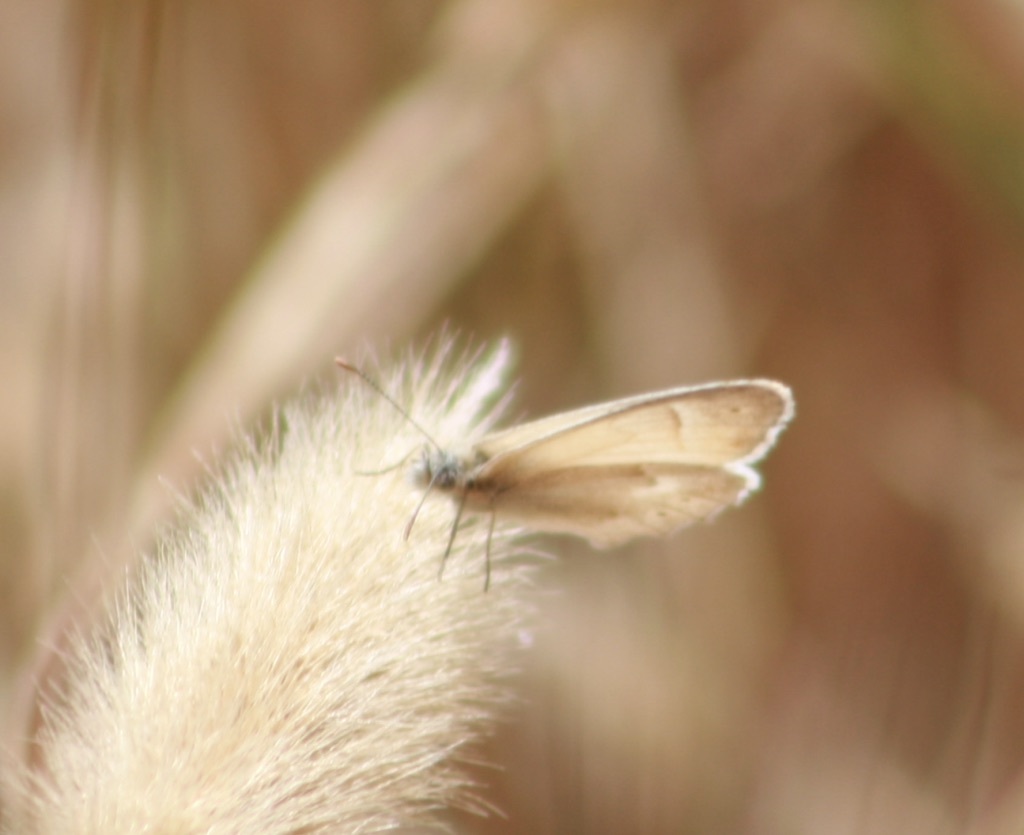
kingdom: Animalia
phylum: Arthropoda
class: Insecta
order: Lepidoptera
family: Nymphalidae
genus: Coenonympha
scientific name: Coenonympha california
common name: Common ringlet
